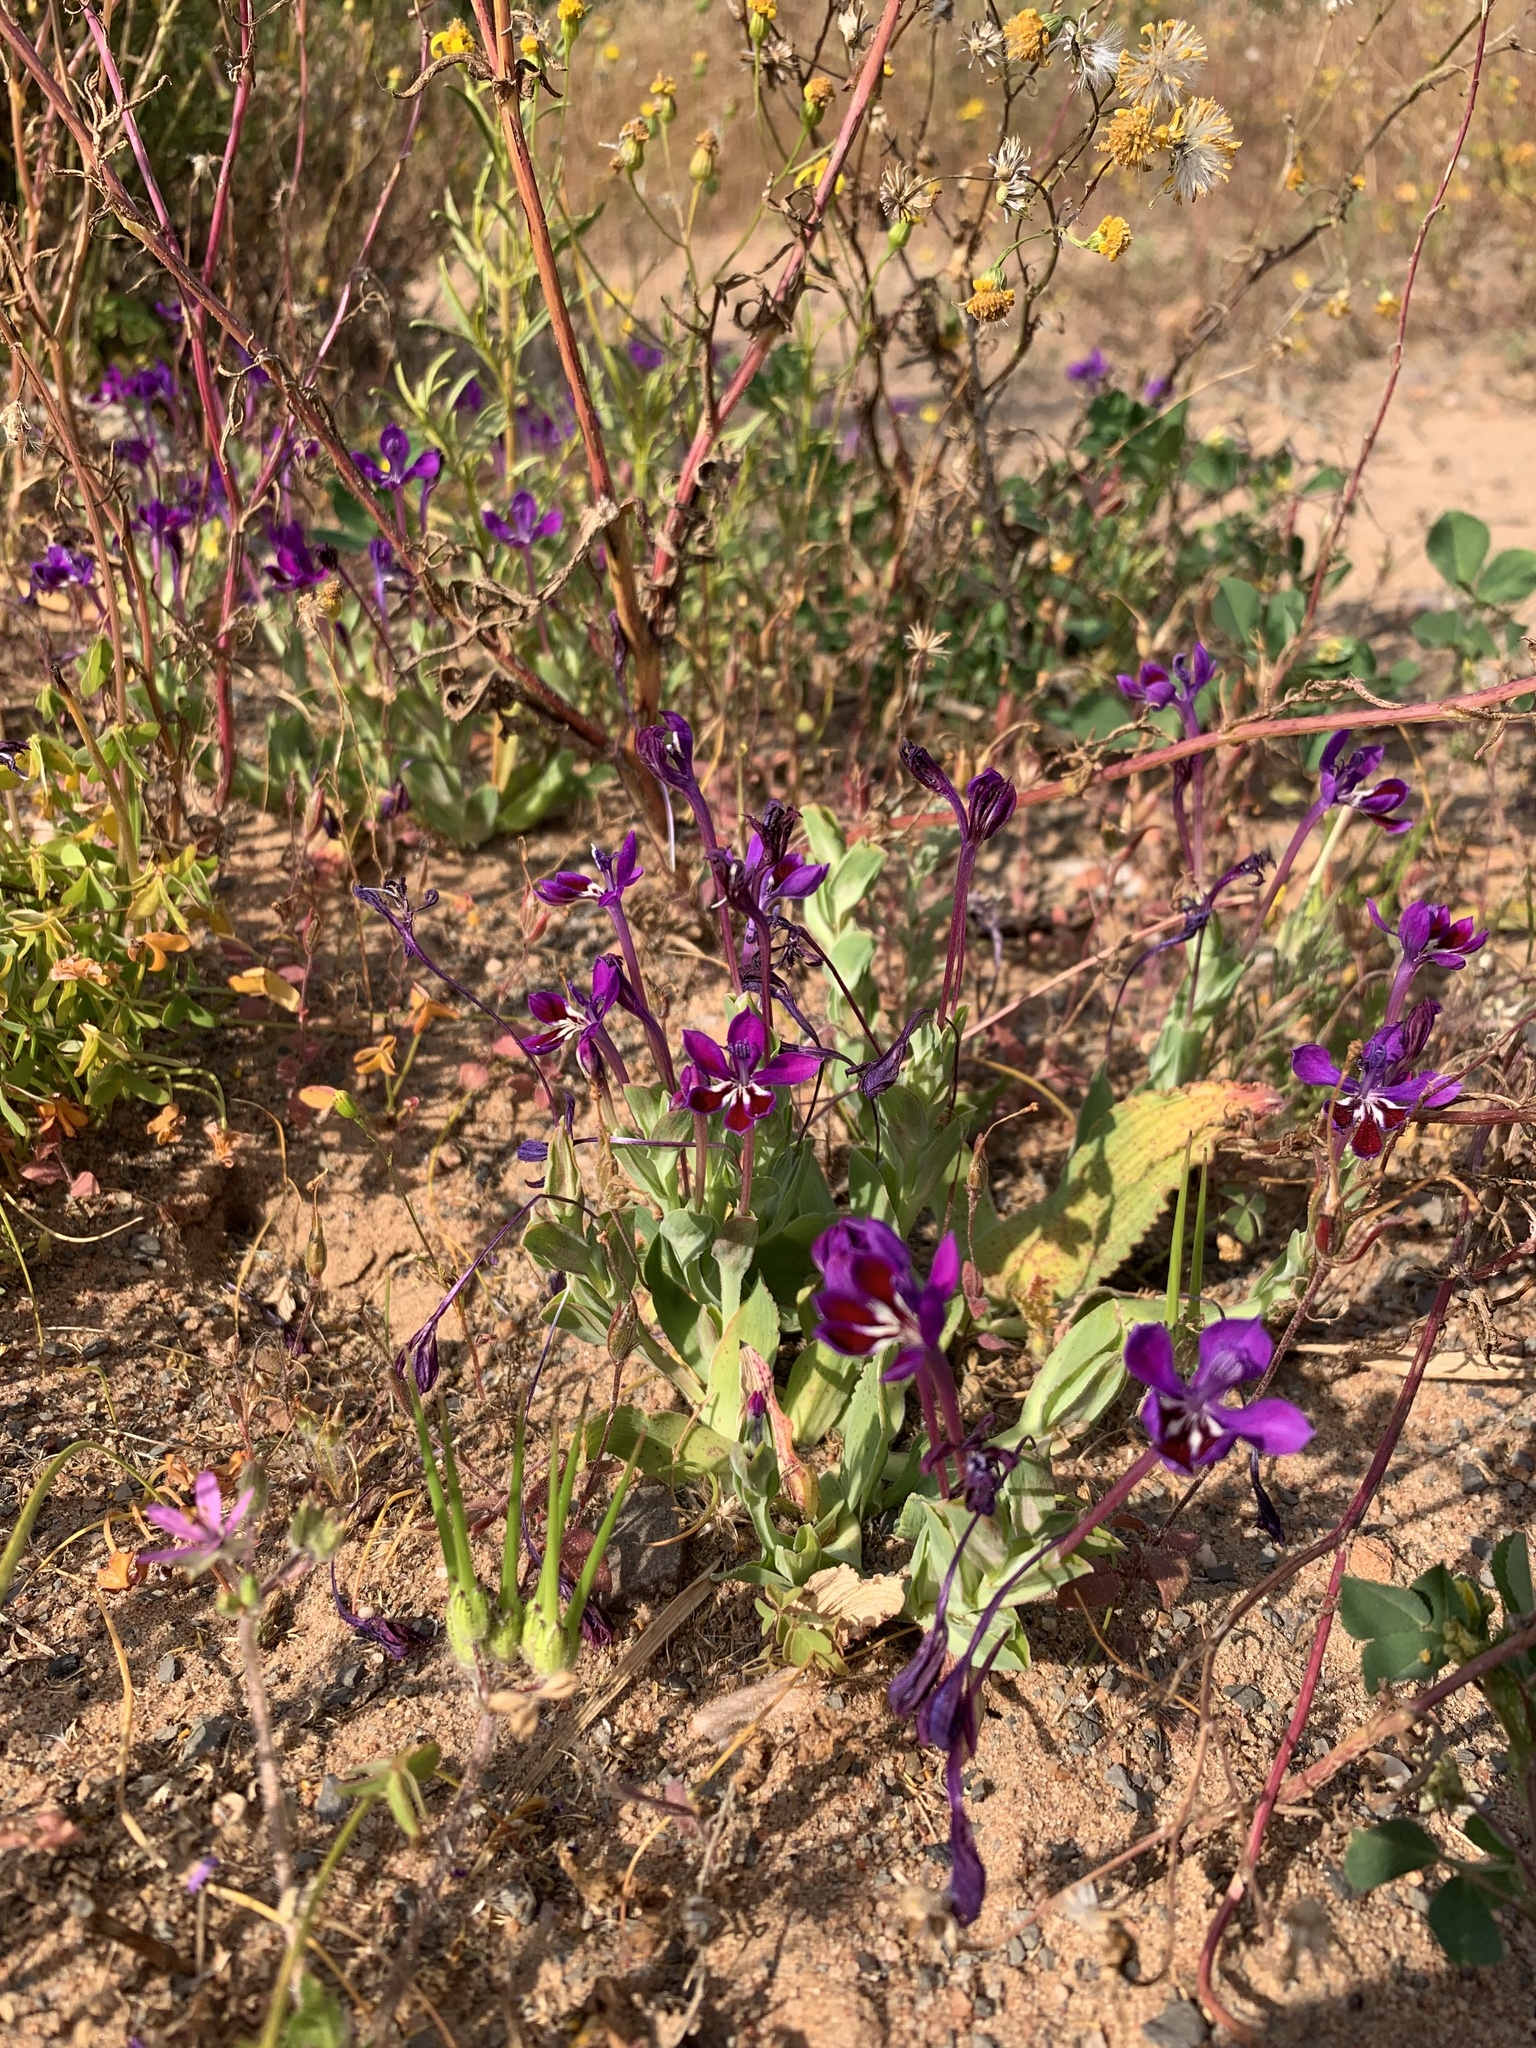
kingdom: Plantae
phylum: Tracheophyta
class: Liliopsida
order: Asparagales
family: Iridaceae
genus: Lapeirousia
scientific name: Lapeirousia jacquinii
